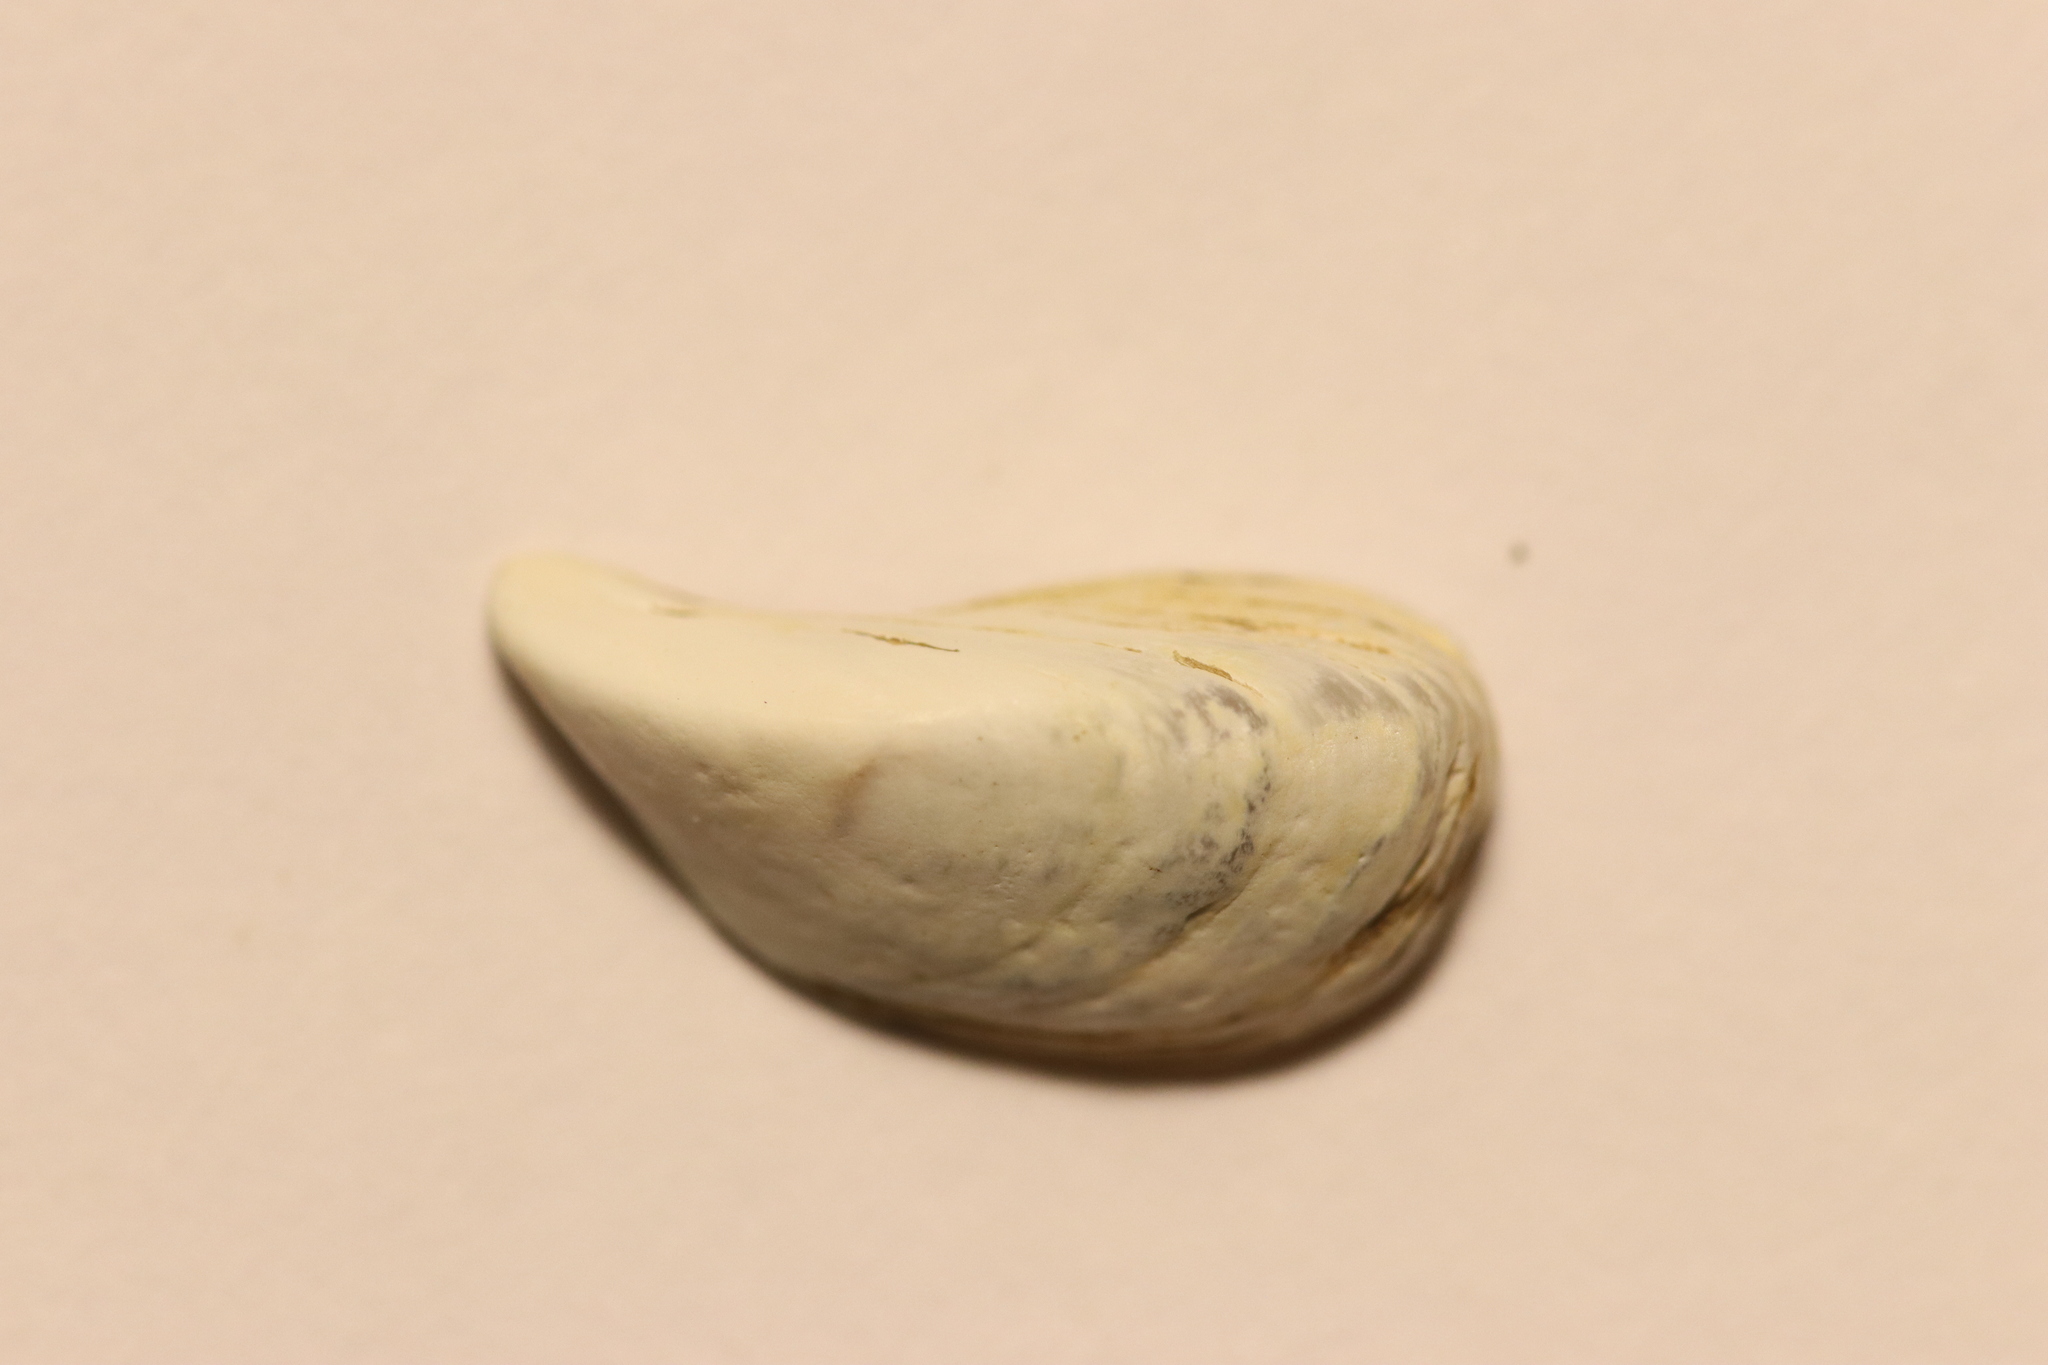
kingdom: Animalia
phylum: Mollusca
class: Bivalvia
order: Myida
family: Dreissenidae
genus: Dreissena
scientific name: Dreissena polymorpha
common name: Zebra mussel
